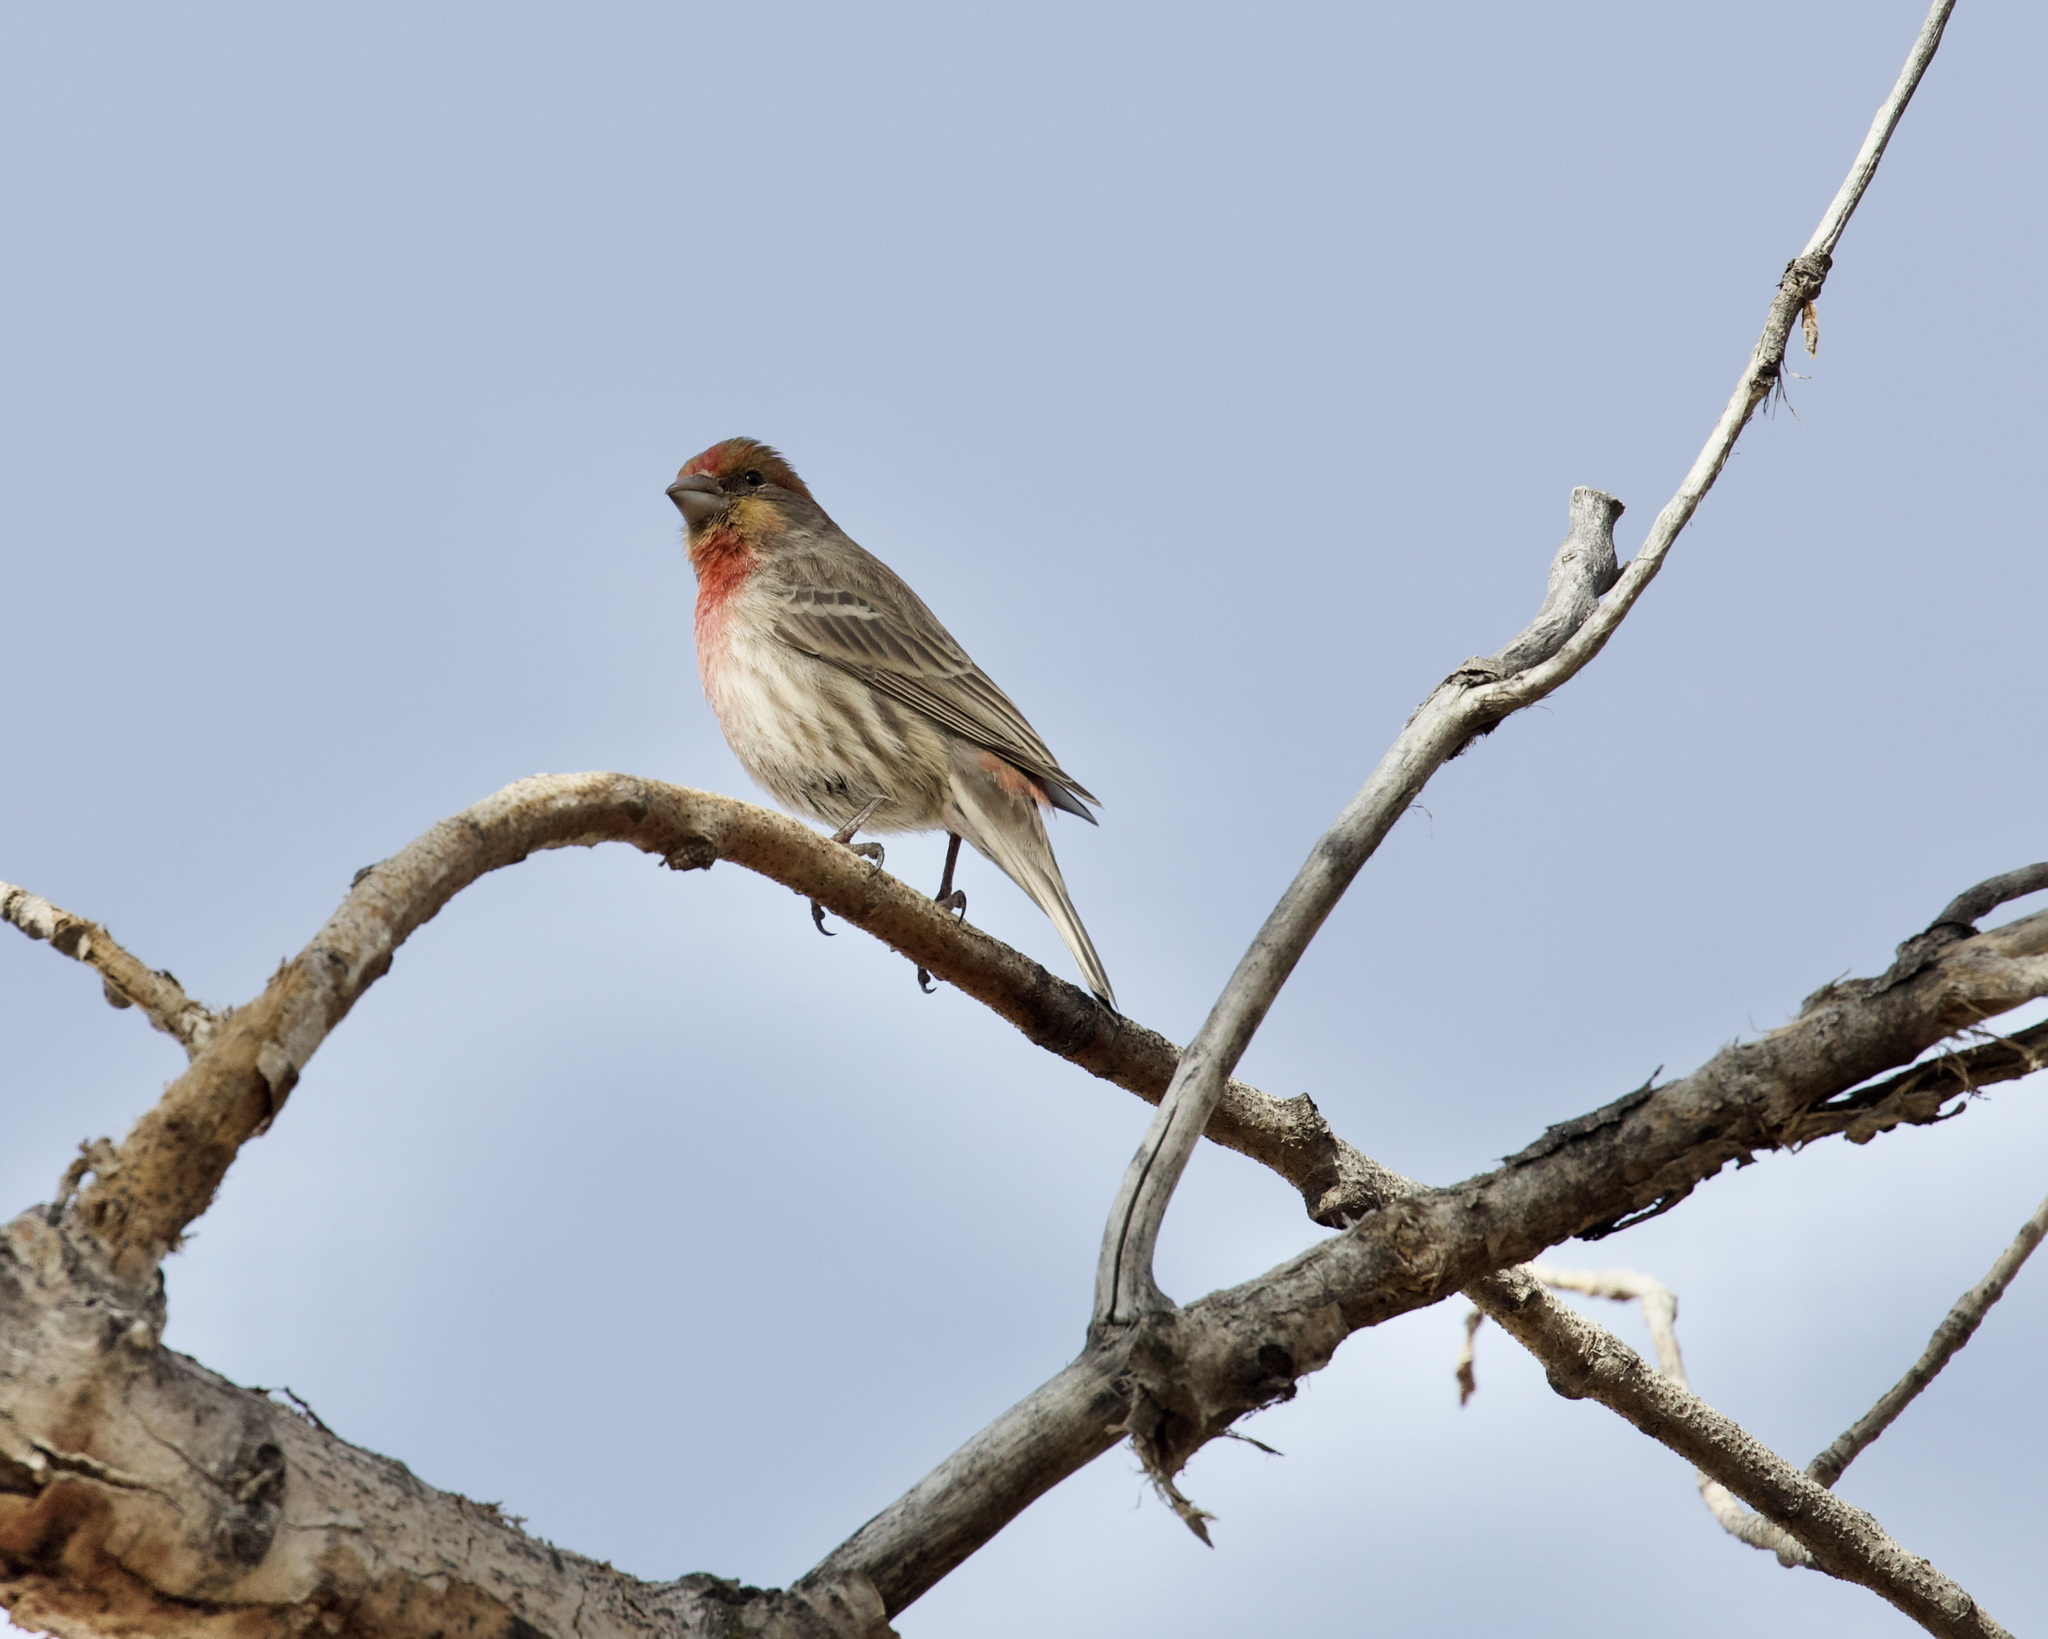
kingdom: Animalia
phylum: Chordata
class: Aves
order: Passeriformes
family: Fringillidae
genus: Haemorhous
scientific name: Haemorhous mexicanus
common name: House finch
